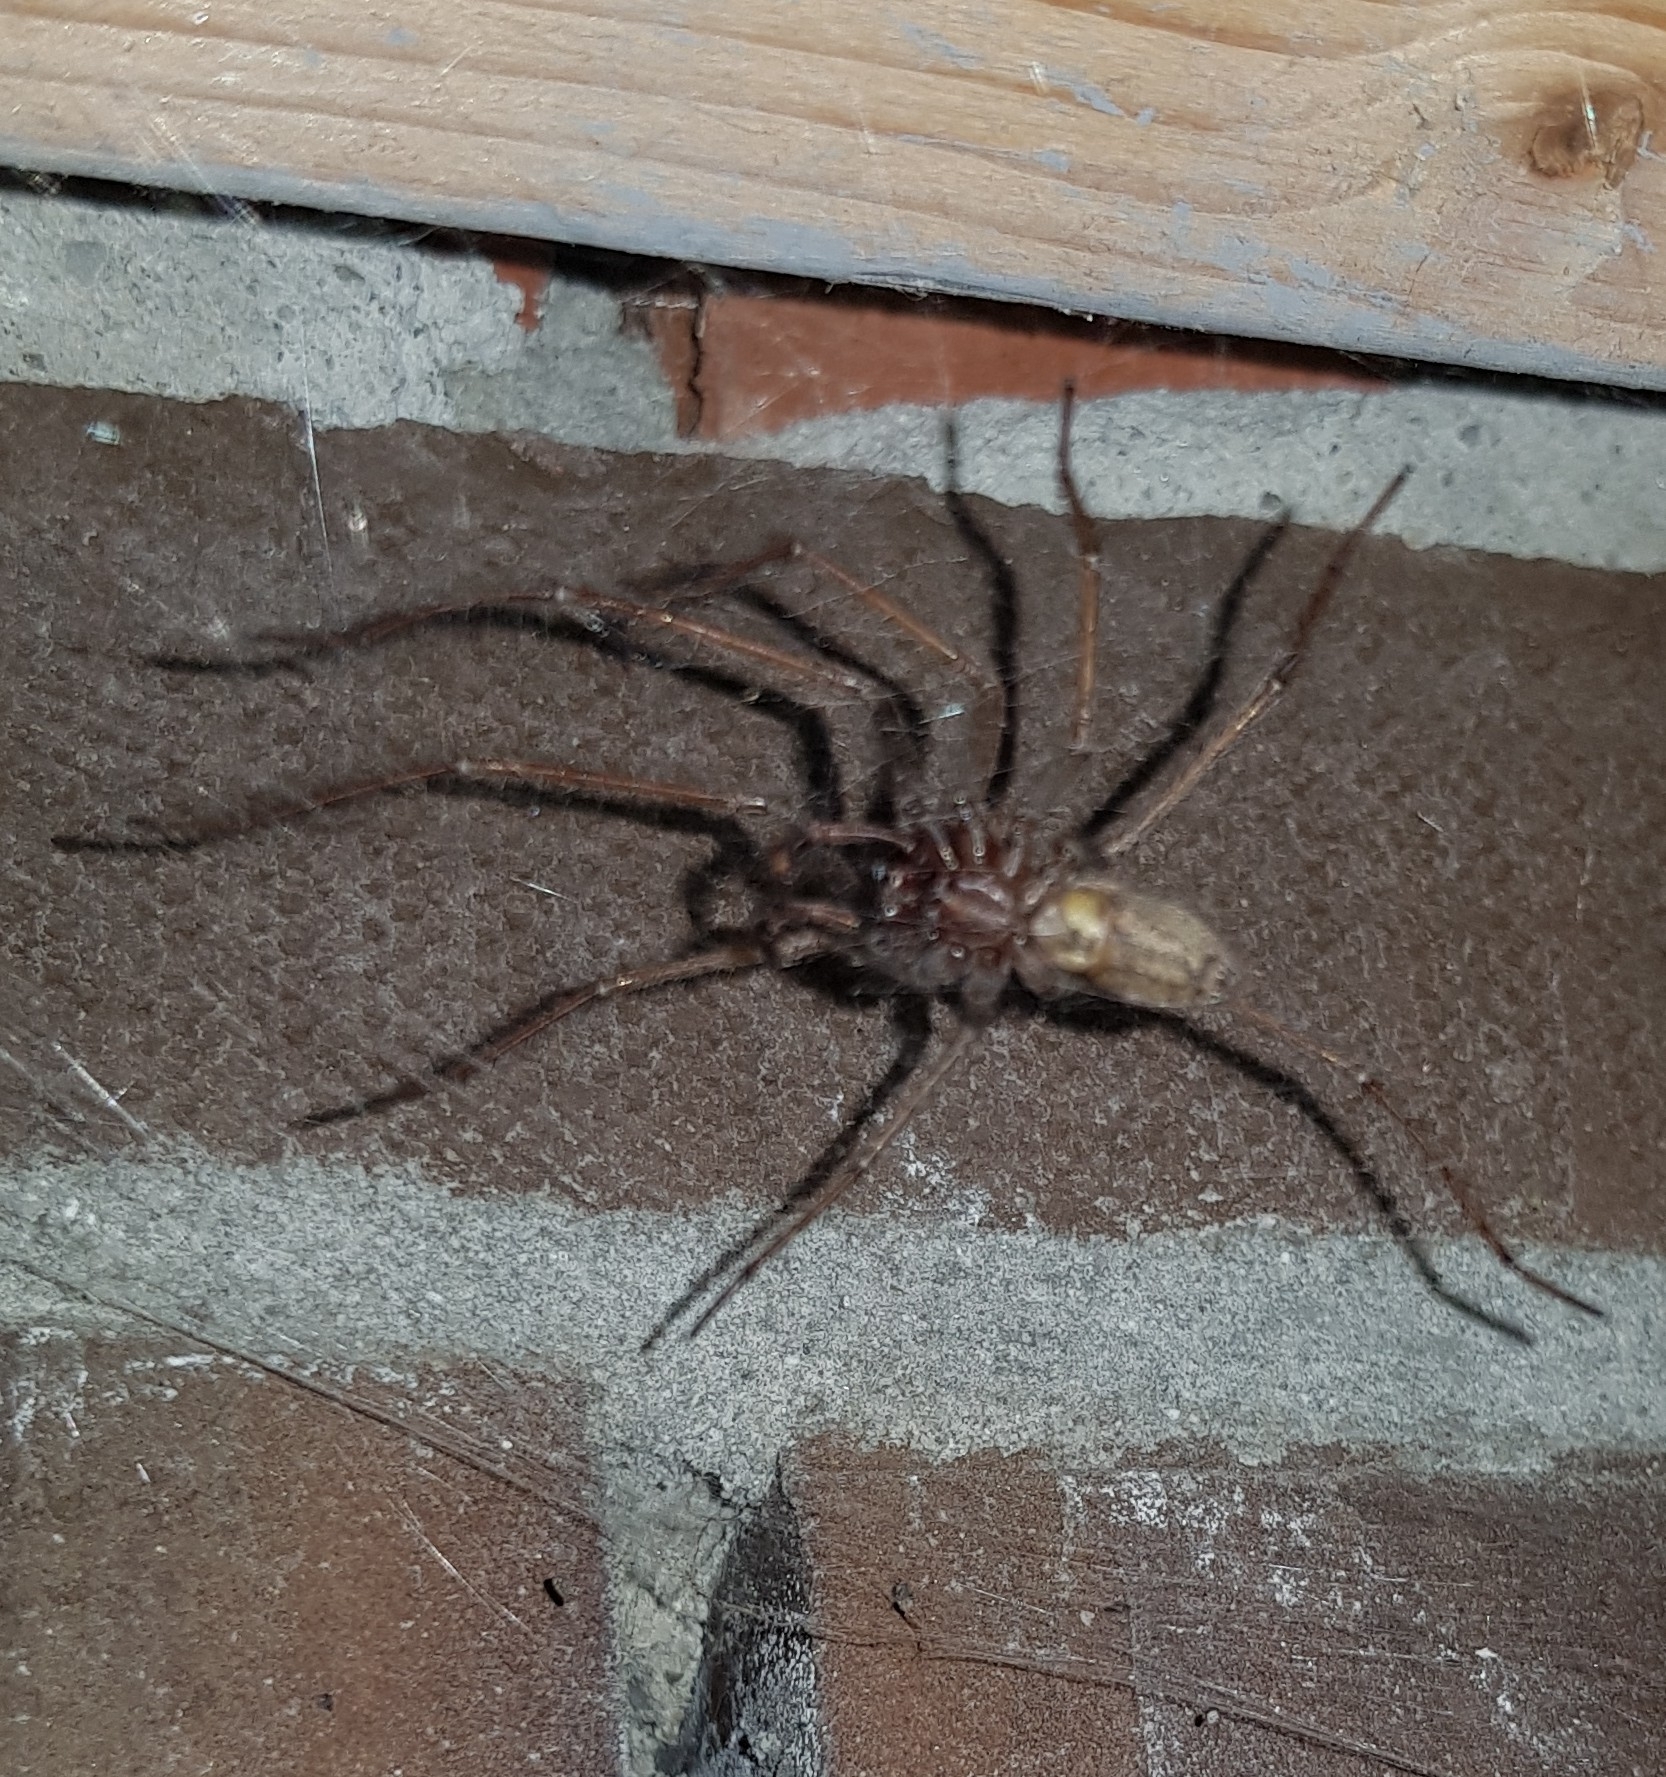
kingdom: Animalia
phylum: Arthropoda
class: Arachnida
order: Araneae
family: Agelenidae
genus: Eratigena
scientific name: Eratigena atrica
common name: Giant house spider
